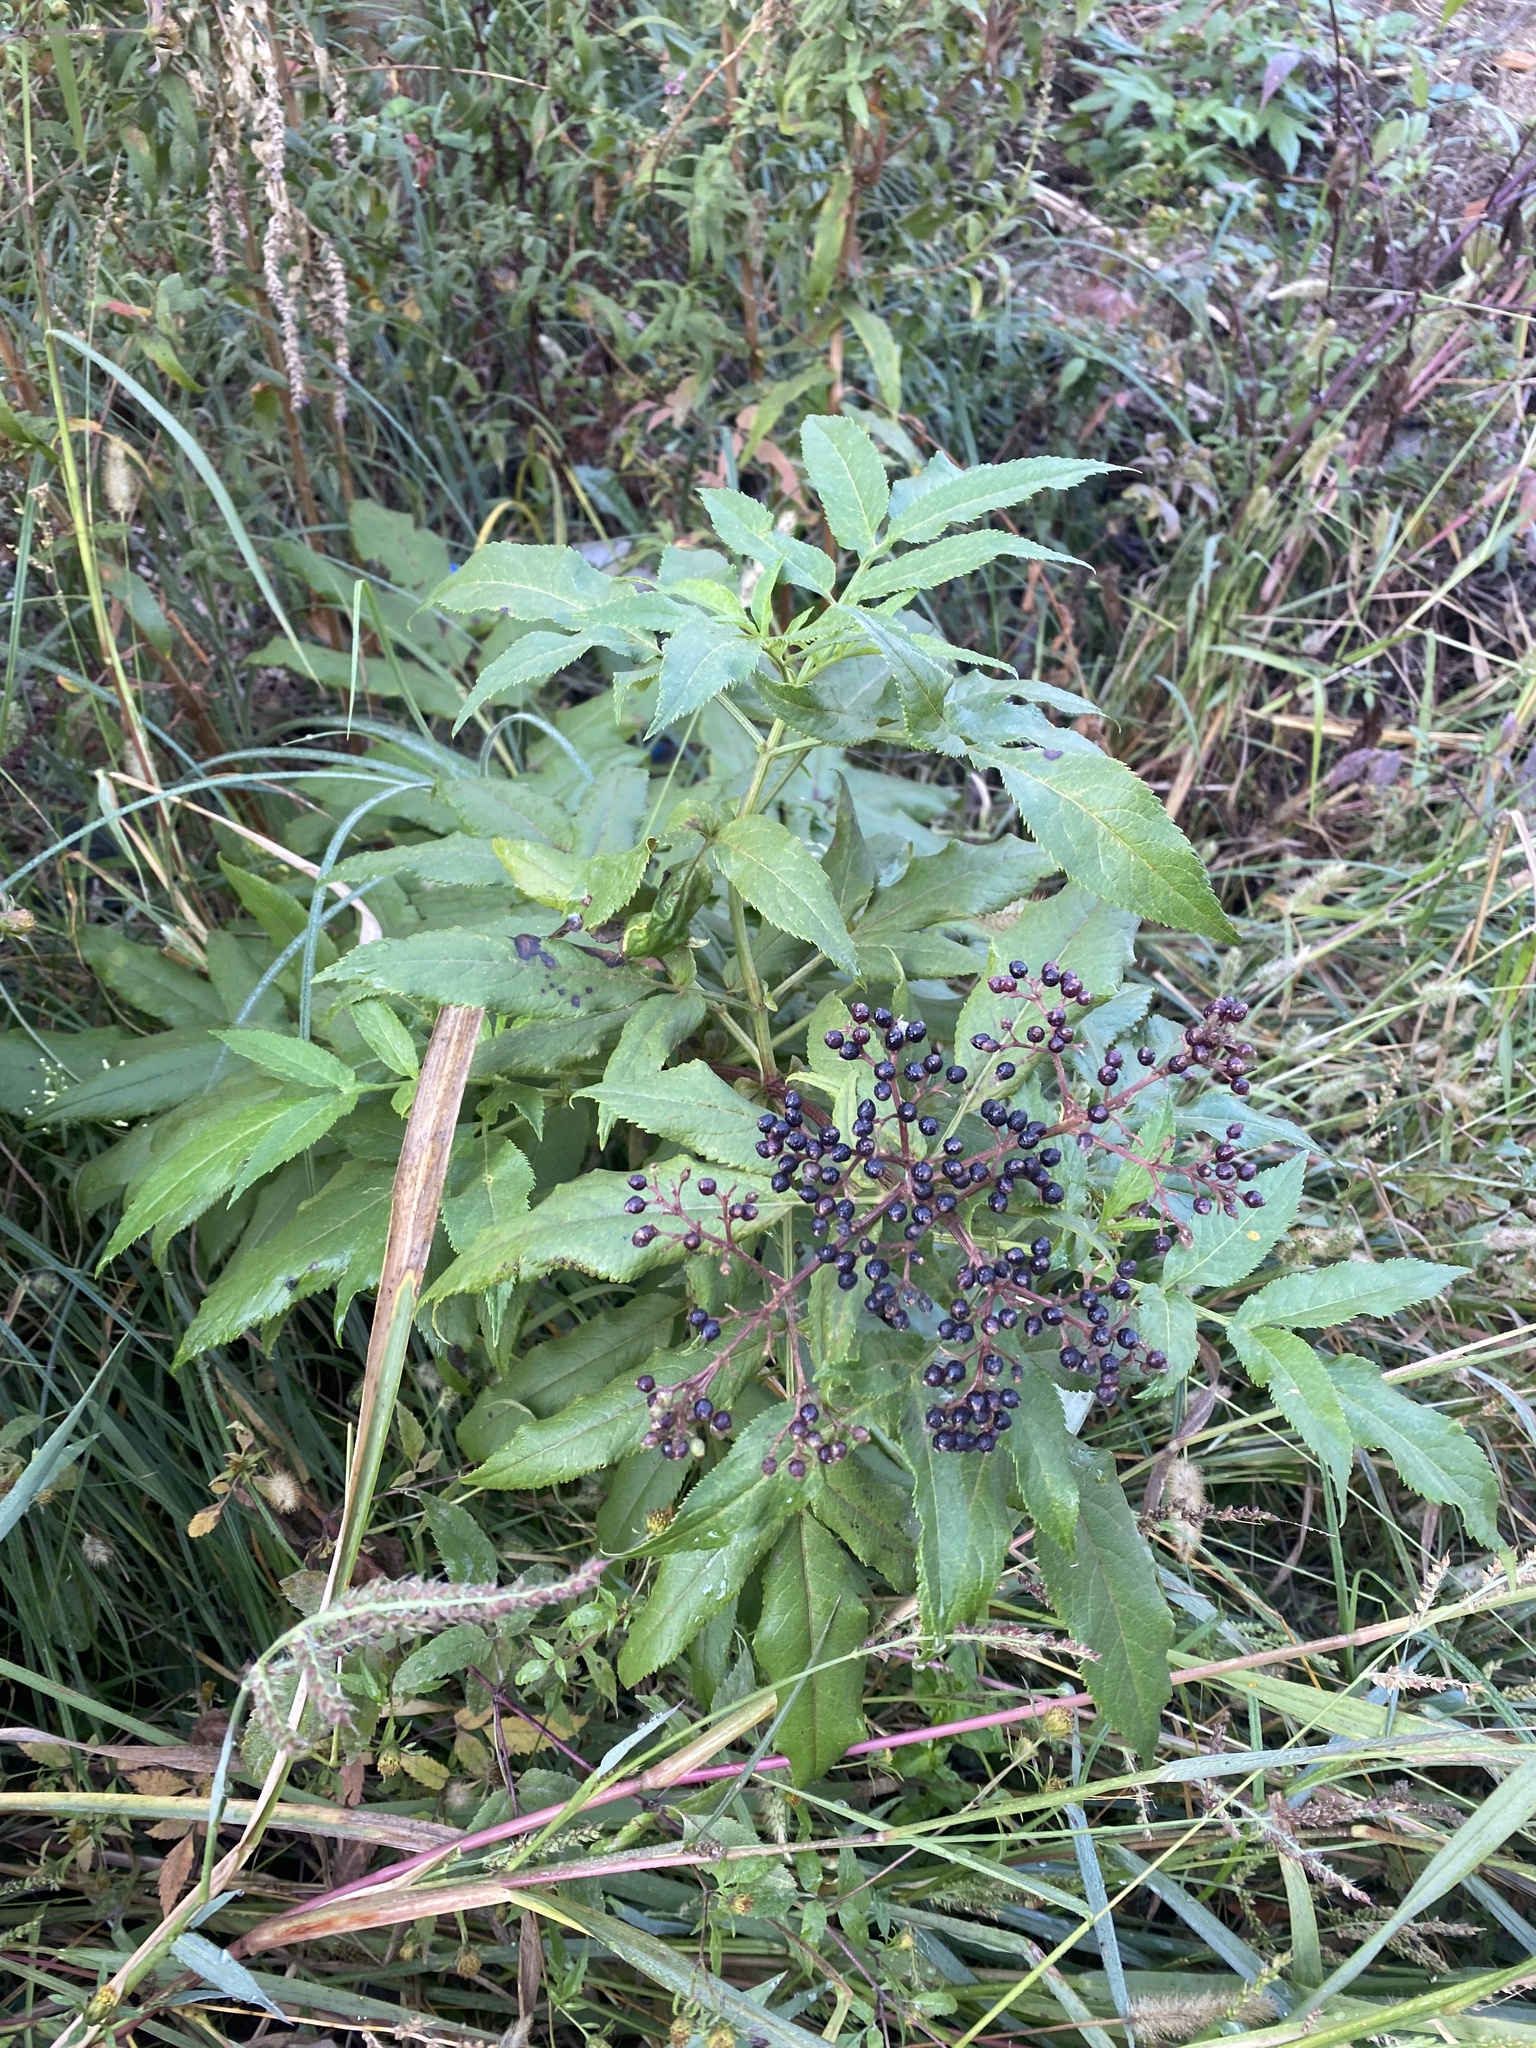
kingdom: Plantae
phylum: Tracheophyta
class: Magnoliopsida
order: Dipsacales
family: Viburnaceae
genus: Sambucus
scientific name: Sambucus ebulus
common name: Dwarf elder
